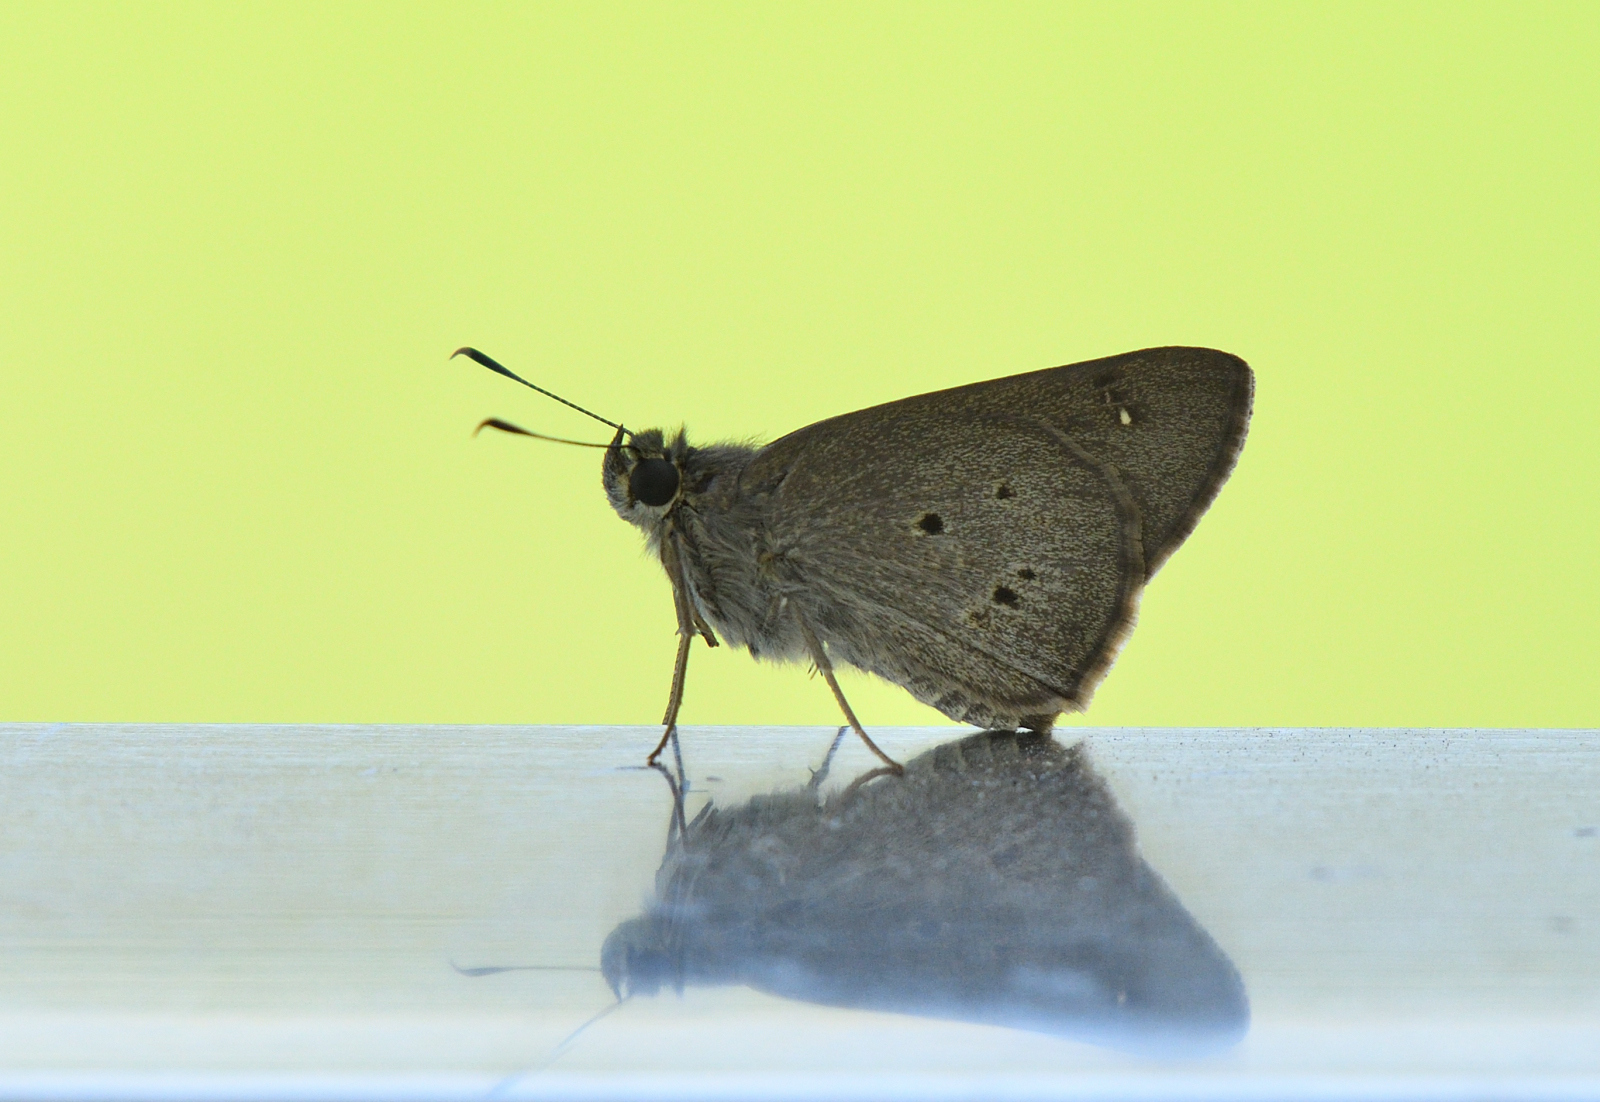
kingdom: Animalia
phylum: Arthropoda
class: Insecta
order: Lepidoptera
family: Hesperiidae
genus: Suastus
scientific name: Suastus gremius
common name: Indian palm bob
